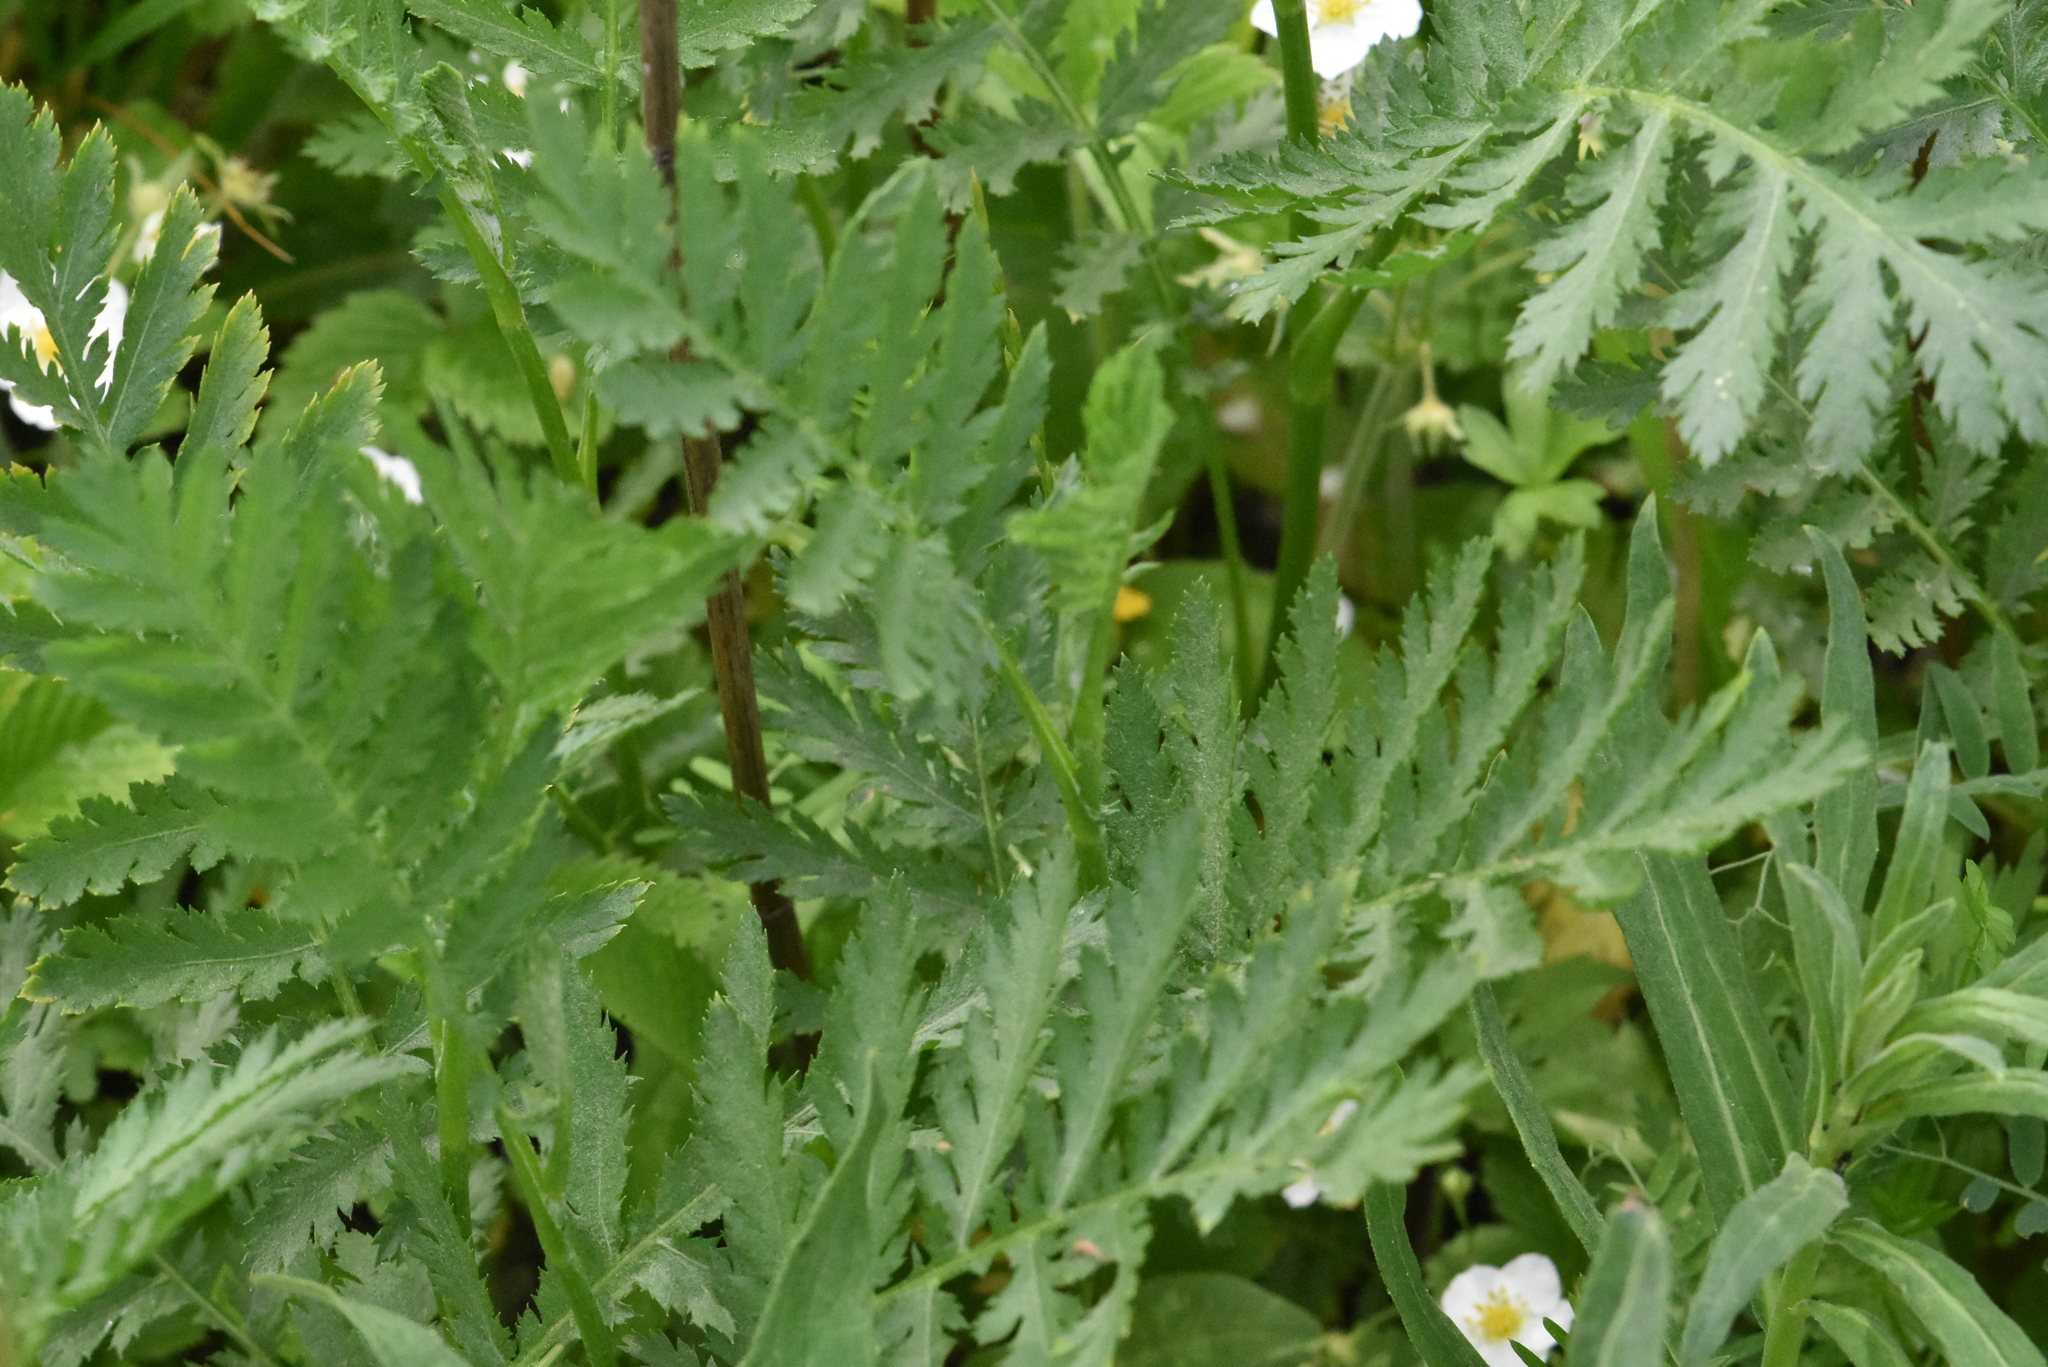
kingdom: Plantae
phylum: Tracheophyta
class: Magnoliopsida
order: Asterales
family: Asteraceae
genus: Tanacetum
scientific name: Tanacetum vulgare
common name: Common tansy
